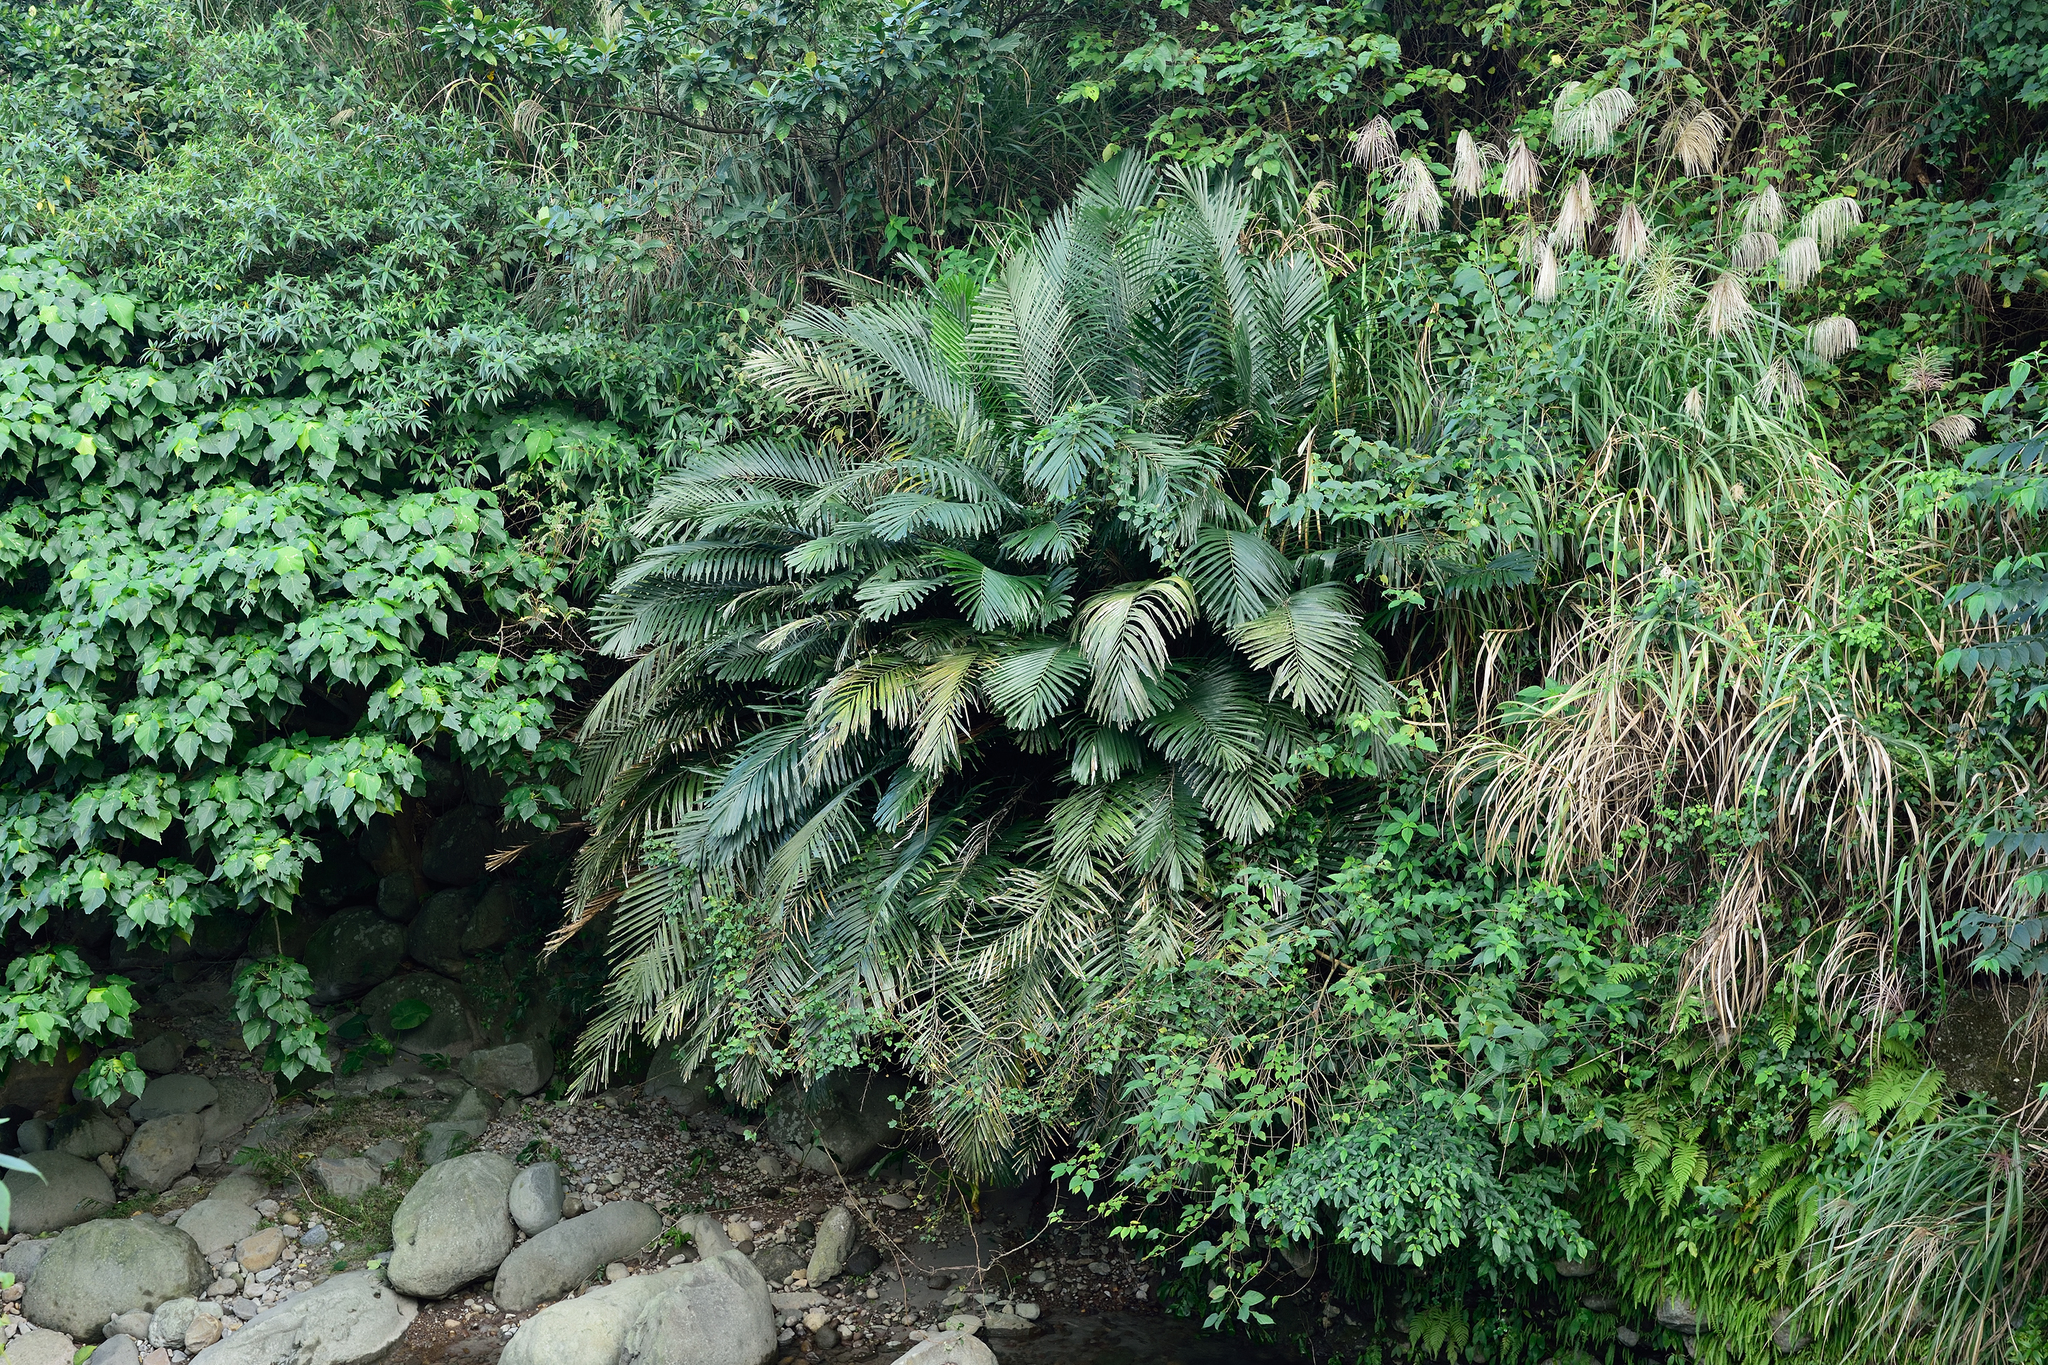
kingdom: Plantae
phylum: Tracheophyta
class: Liliopsida
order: Arecales
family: Arecaceae
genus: Arenga
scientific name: Arenga engleri
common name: Formosan sugar palm
